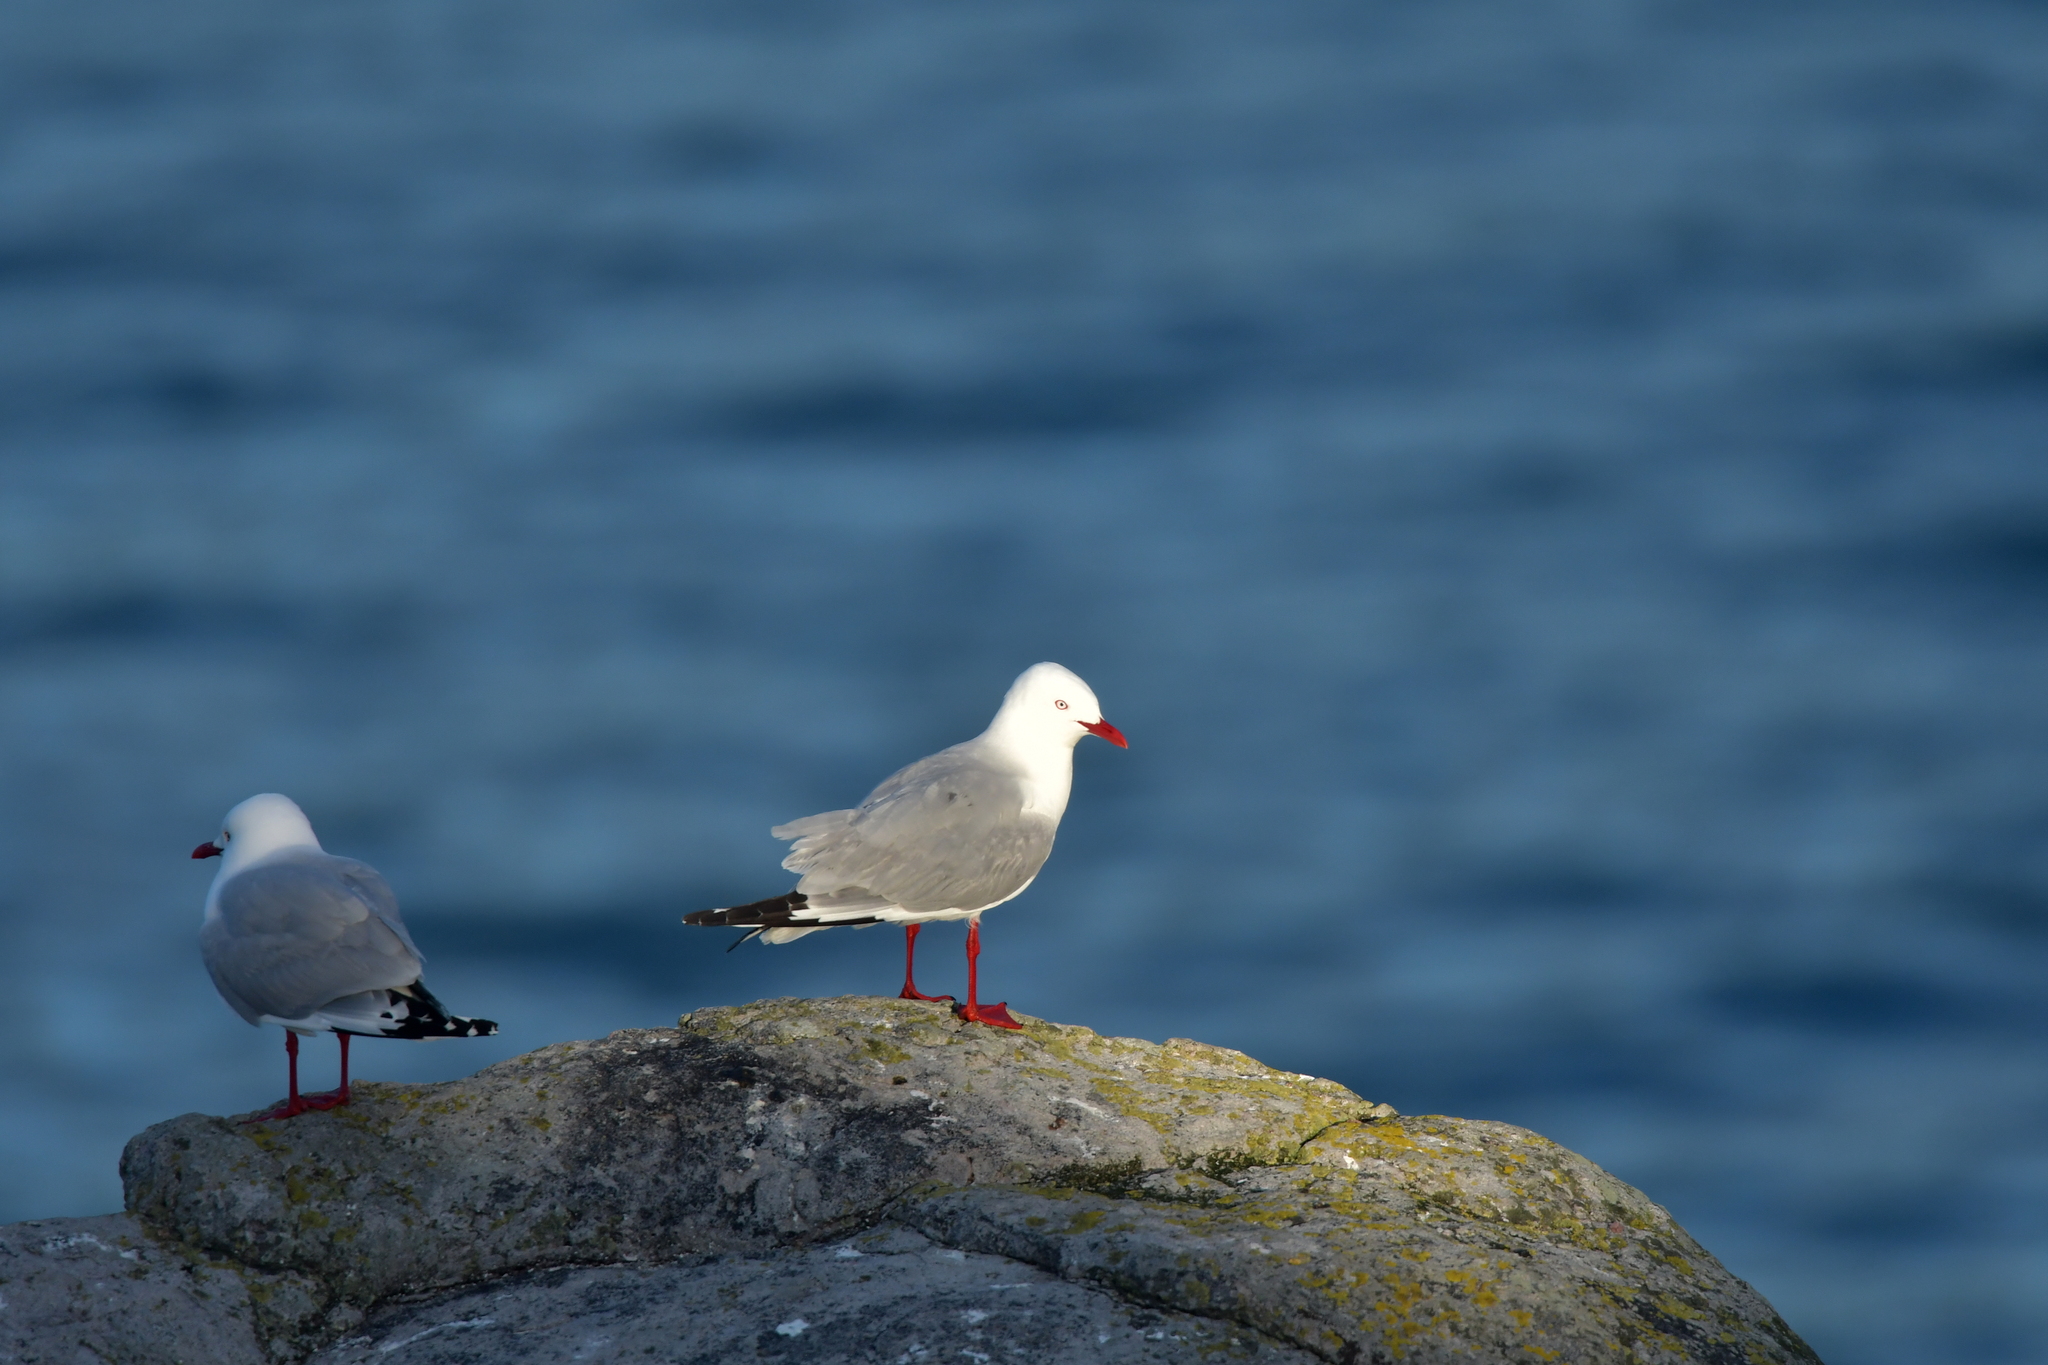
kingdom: Animalia
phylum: Chordata
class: Aves
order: Charadriiformes
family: Laridae
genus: Chroicocephalus
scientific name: Chroicocephalus novaehollandiae
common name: Silver gull
